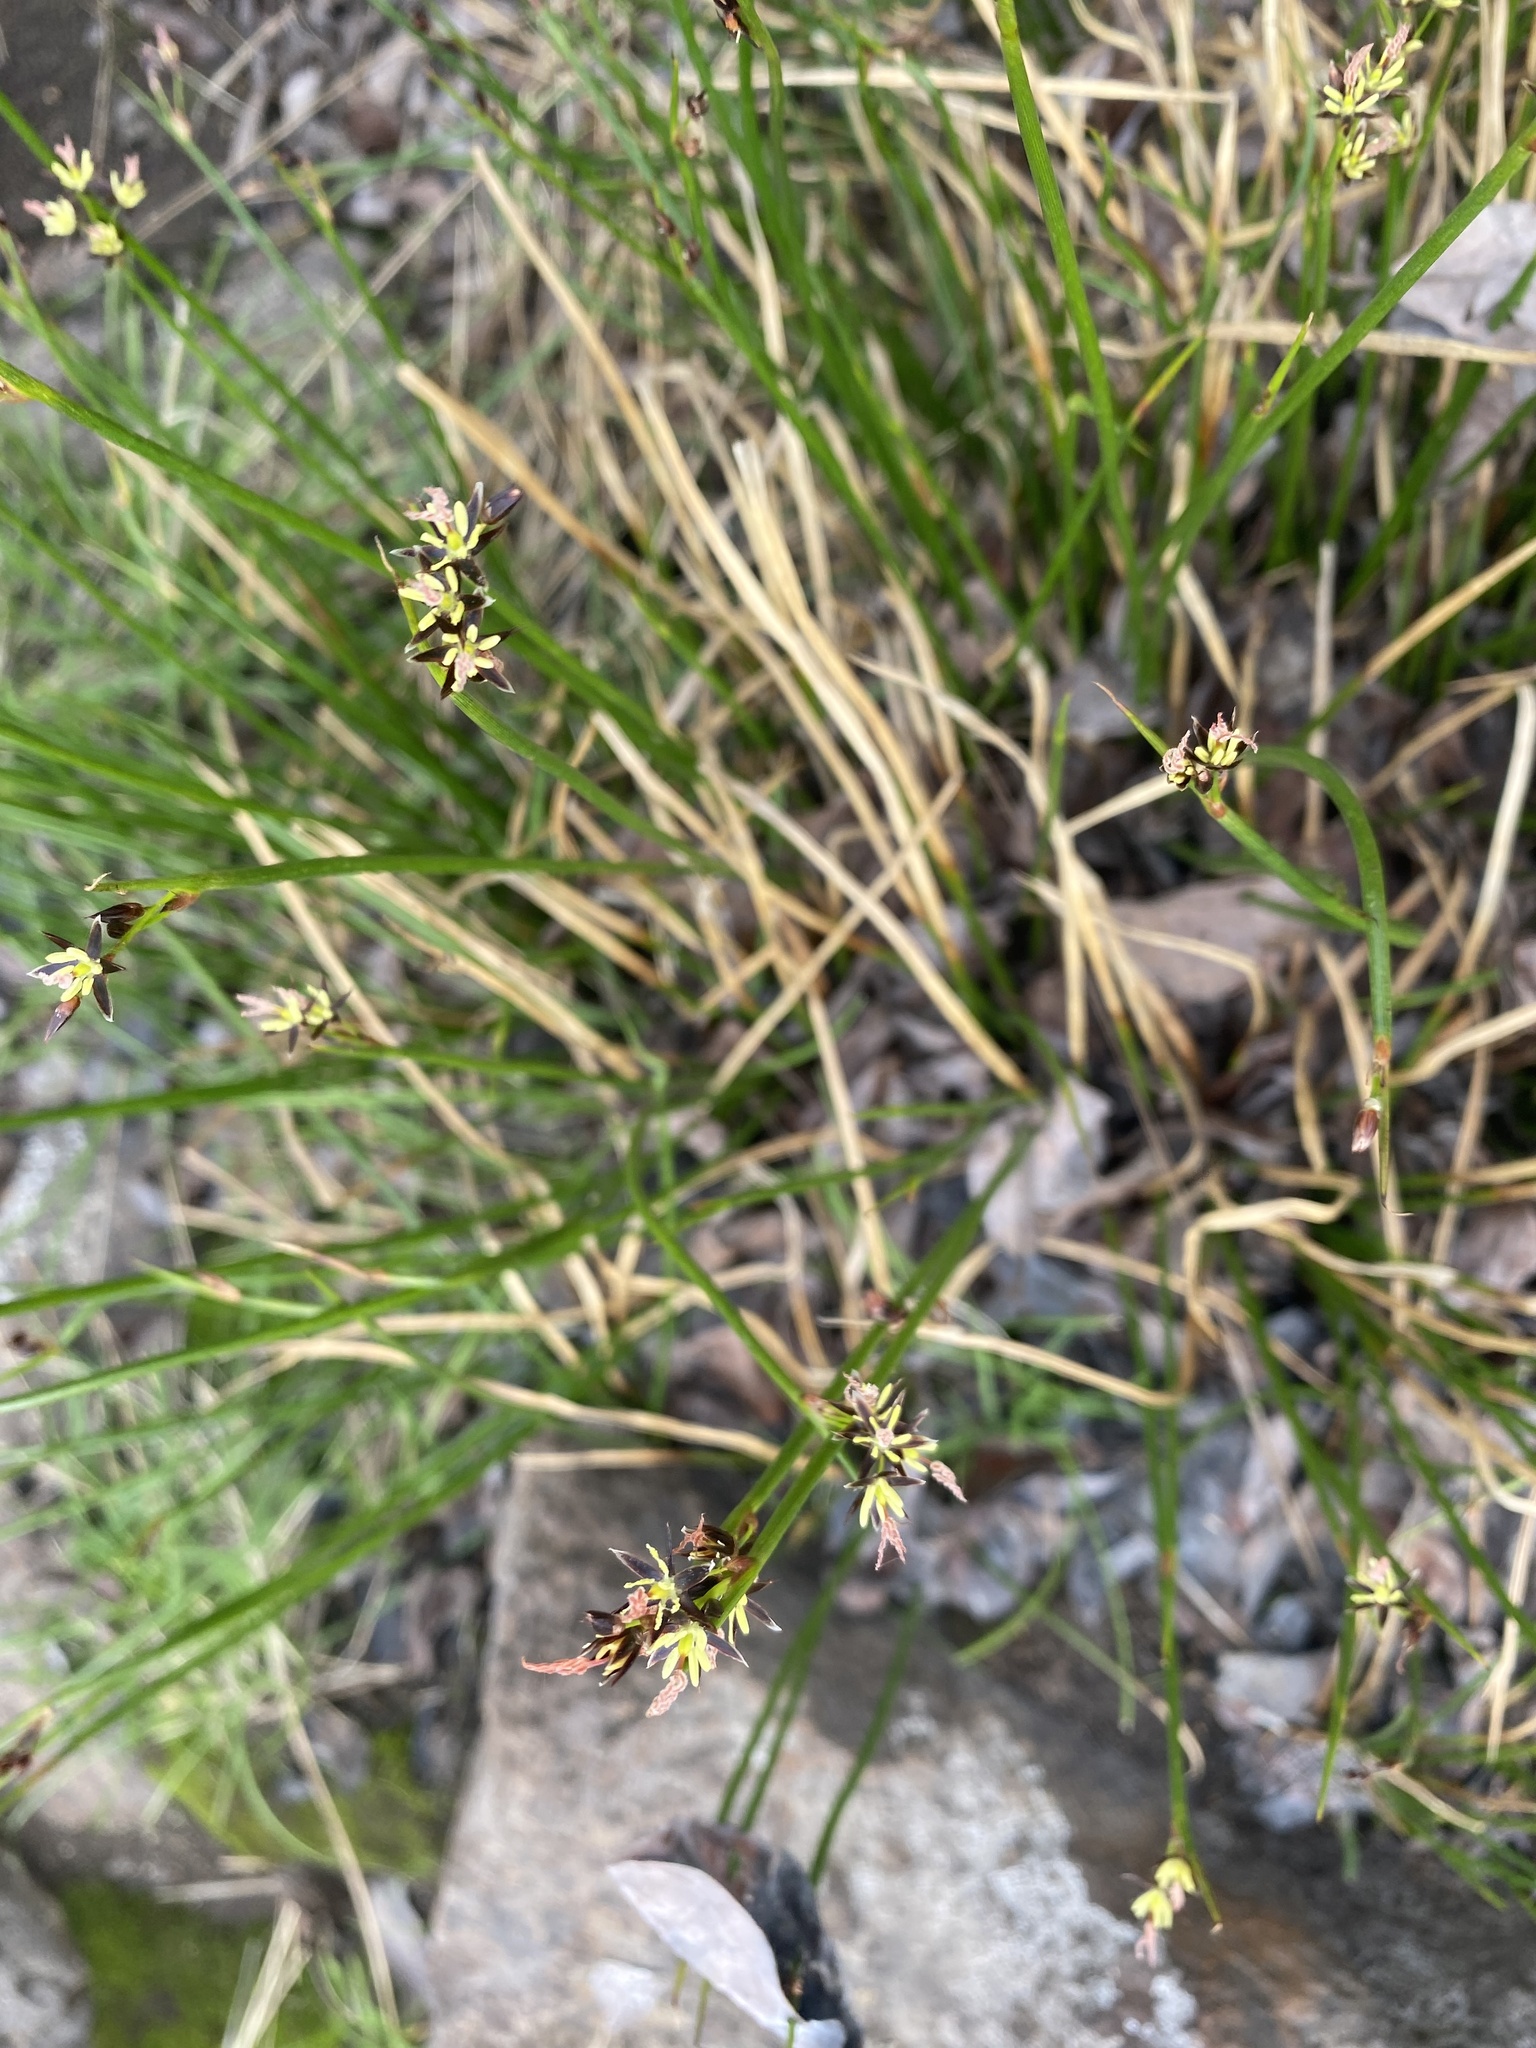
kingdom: Plantae
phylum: Tracheophyta
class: Liliopsida
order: Poales
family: Juncaceae
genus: Juncus
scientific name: Juncus beringensis
